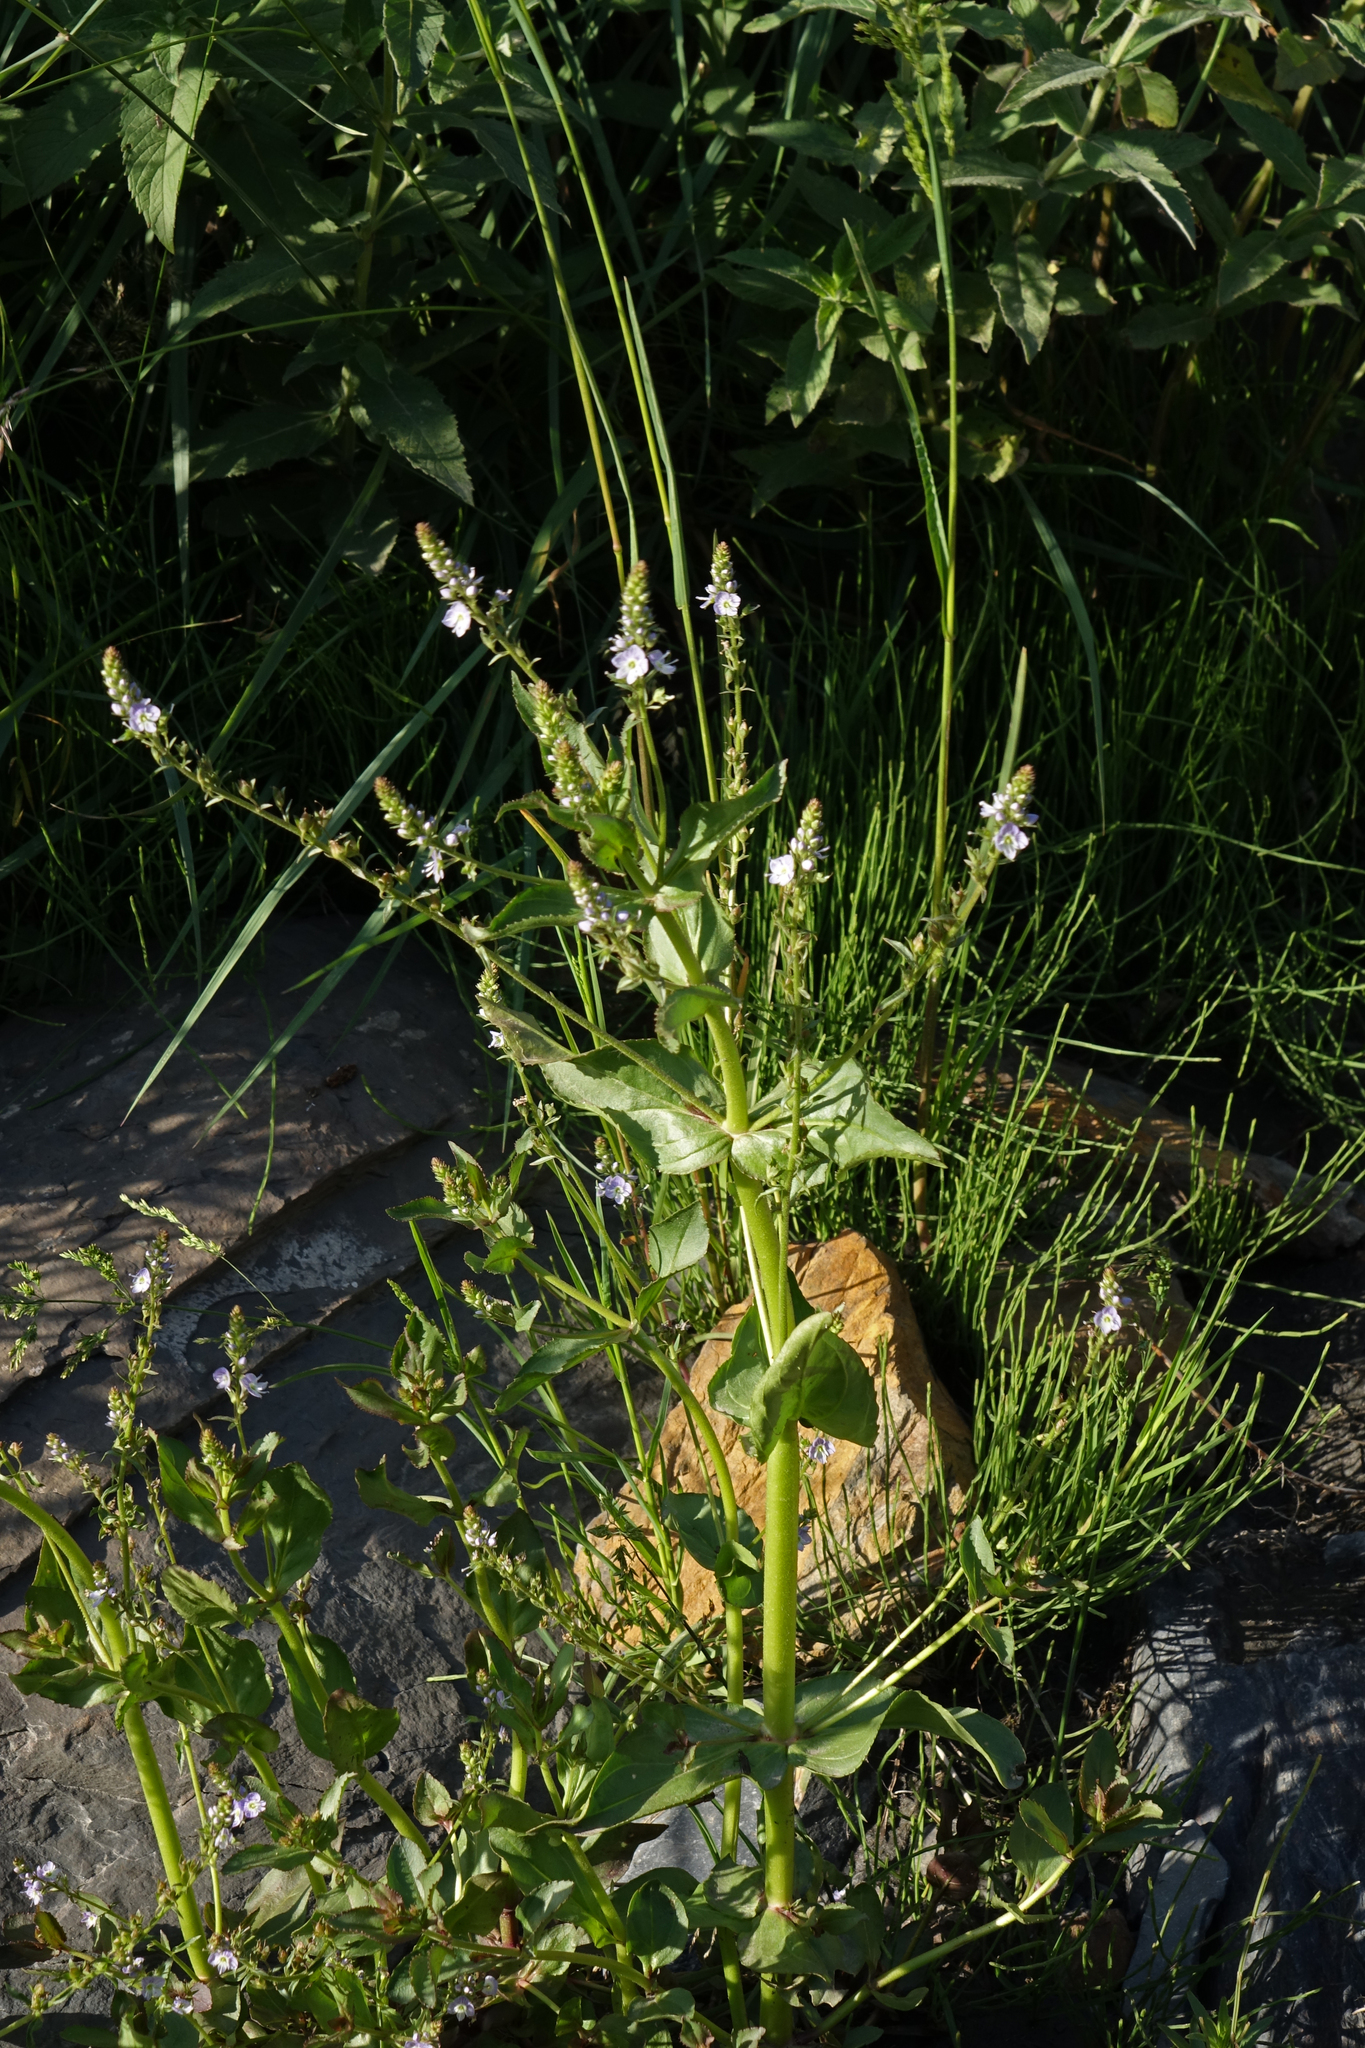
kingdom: Plantae
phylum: Tracheophyta
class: Magnoliopsida
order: Lamiales
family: Plantaginaceae
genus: Veronica
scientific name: Veronica anagallis-aquatica
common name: Water speedwell
